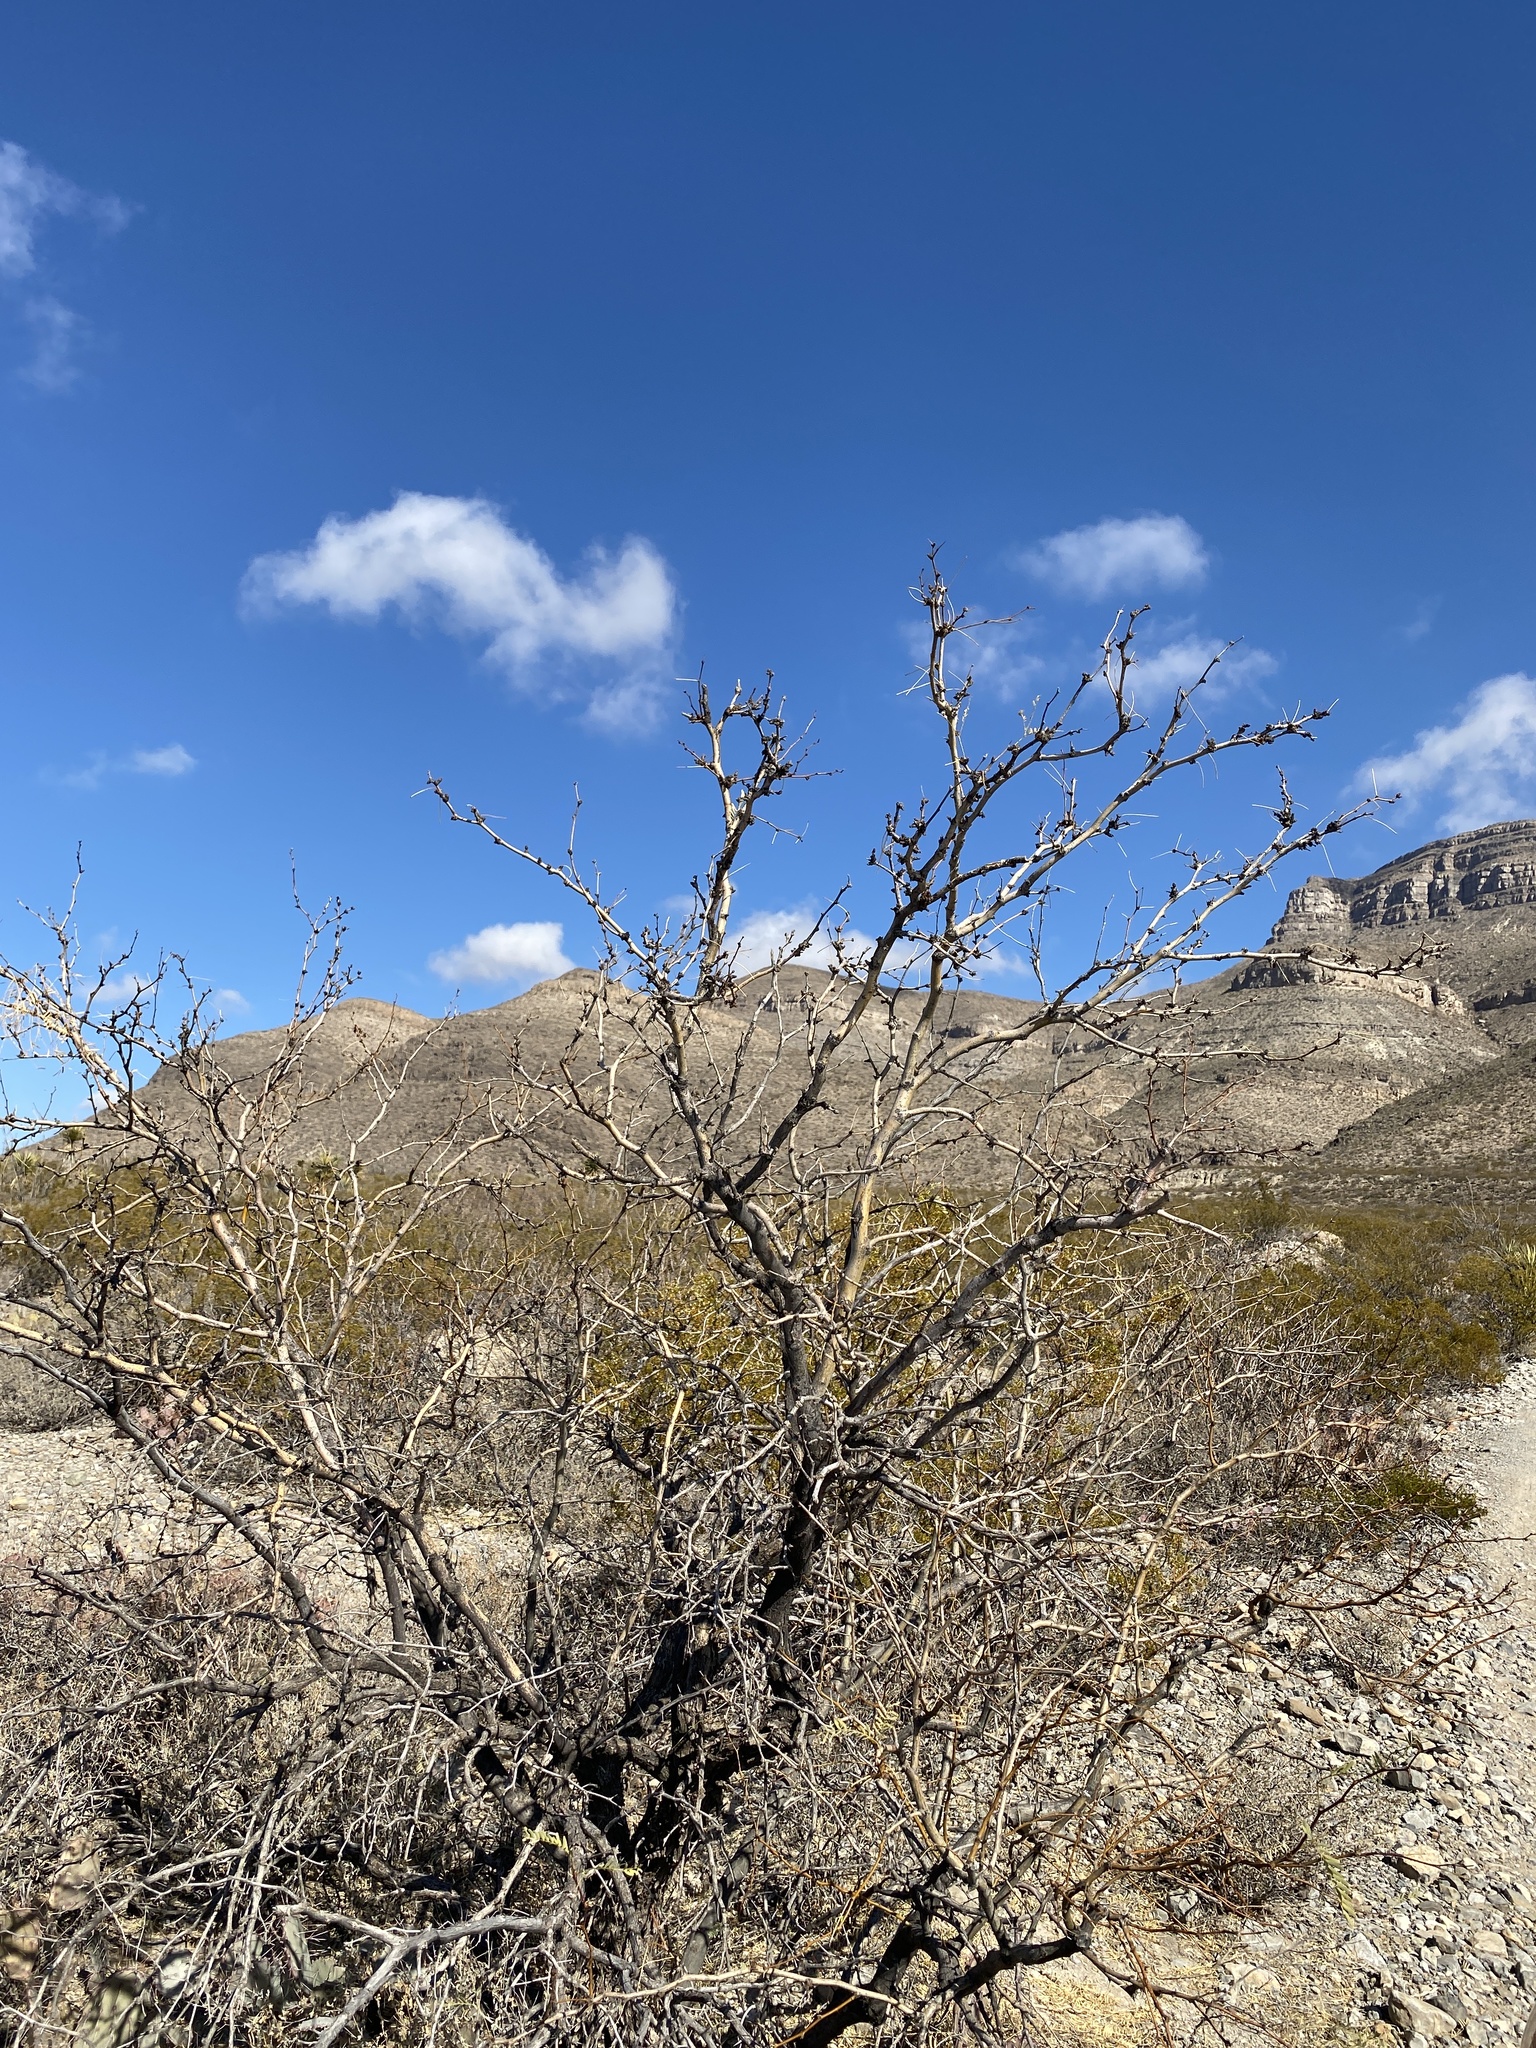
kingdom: Plantae
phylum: Tracheophyta
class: Magnoliopsida
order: Fabales
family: Fabaceae
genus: Prosopis
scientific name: Prosopis glandulosa
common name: Honey mesquite
